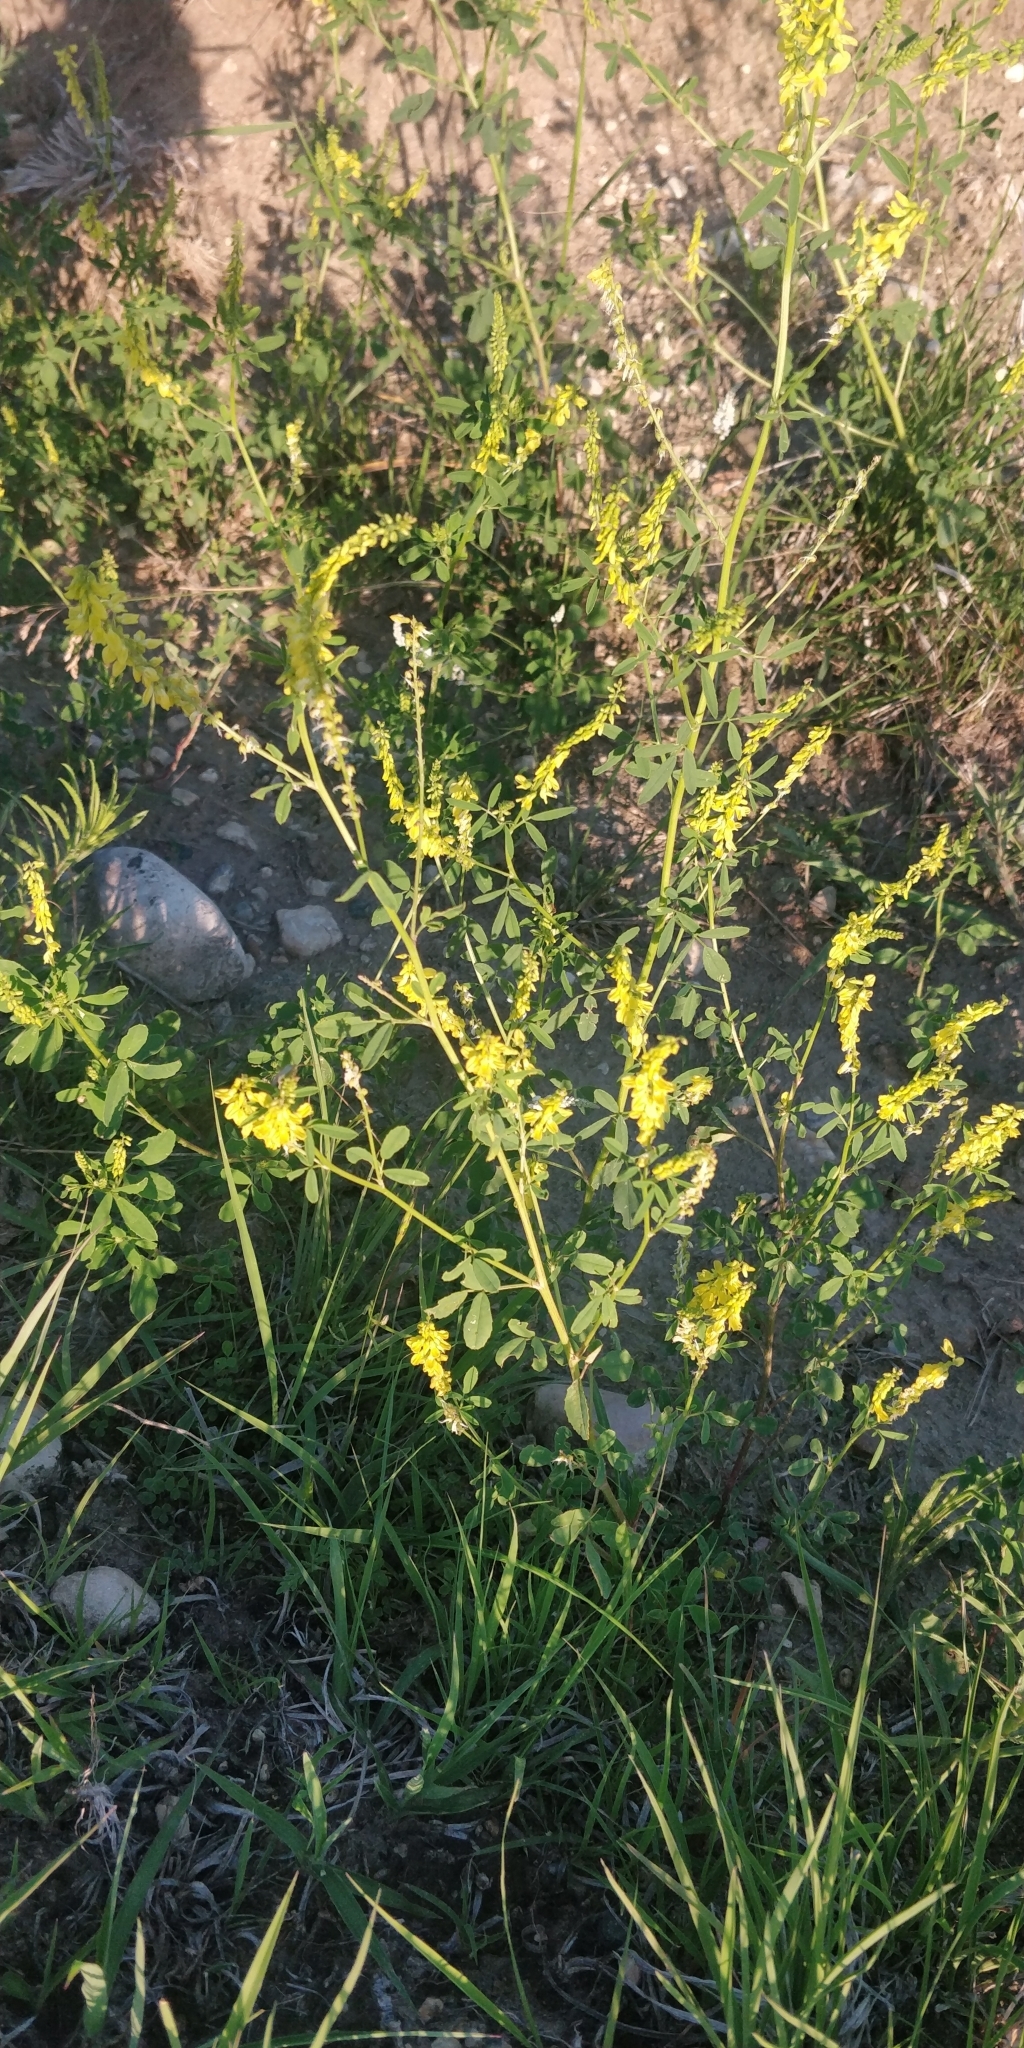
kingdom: Plantae
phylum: Tracheophyta
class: Magnoliopsida
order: Fabales
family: Fabaceae
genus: Melilotus
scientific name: Melilotus officinalis
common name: Sweetclover
